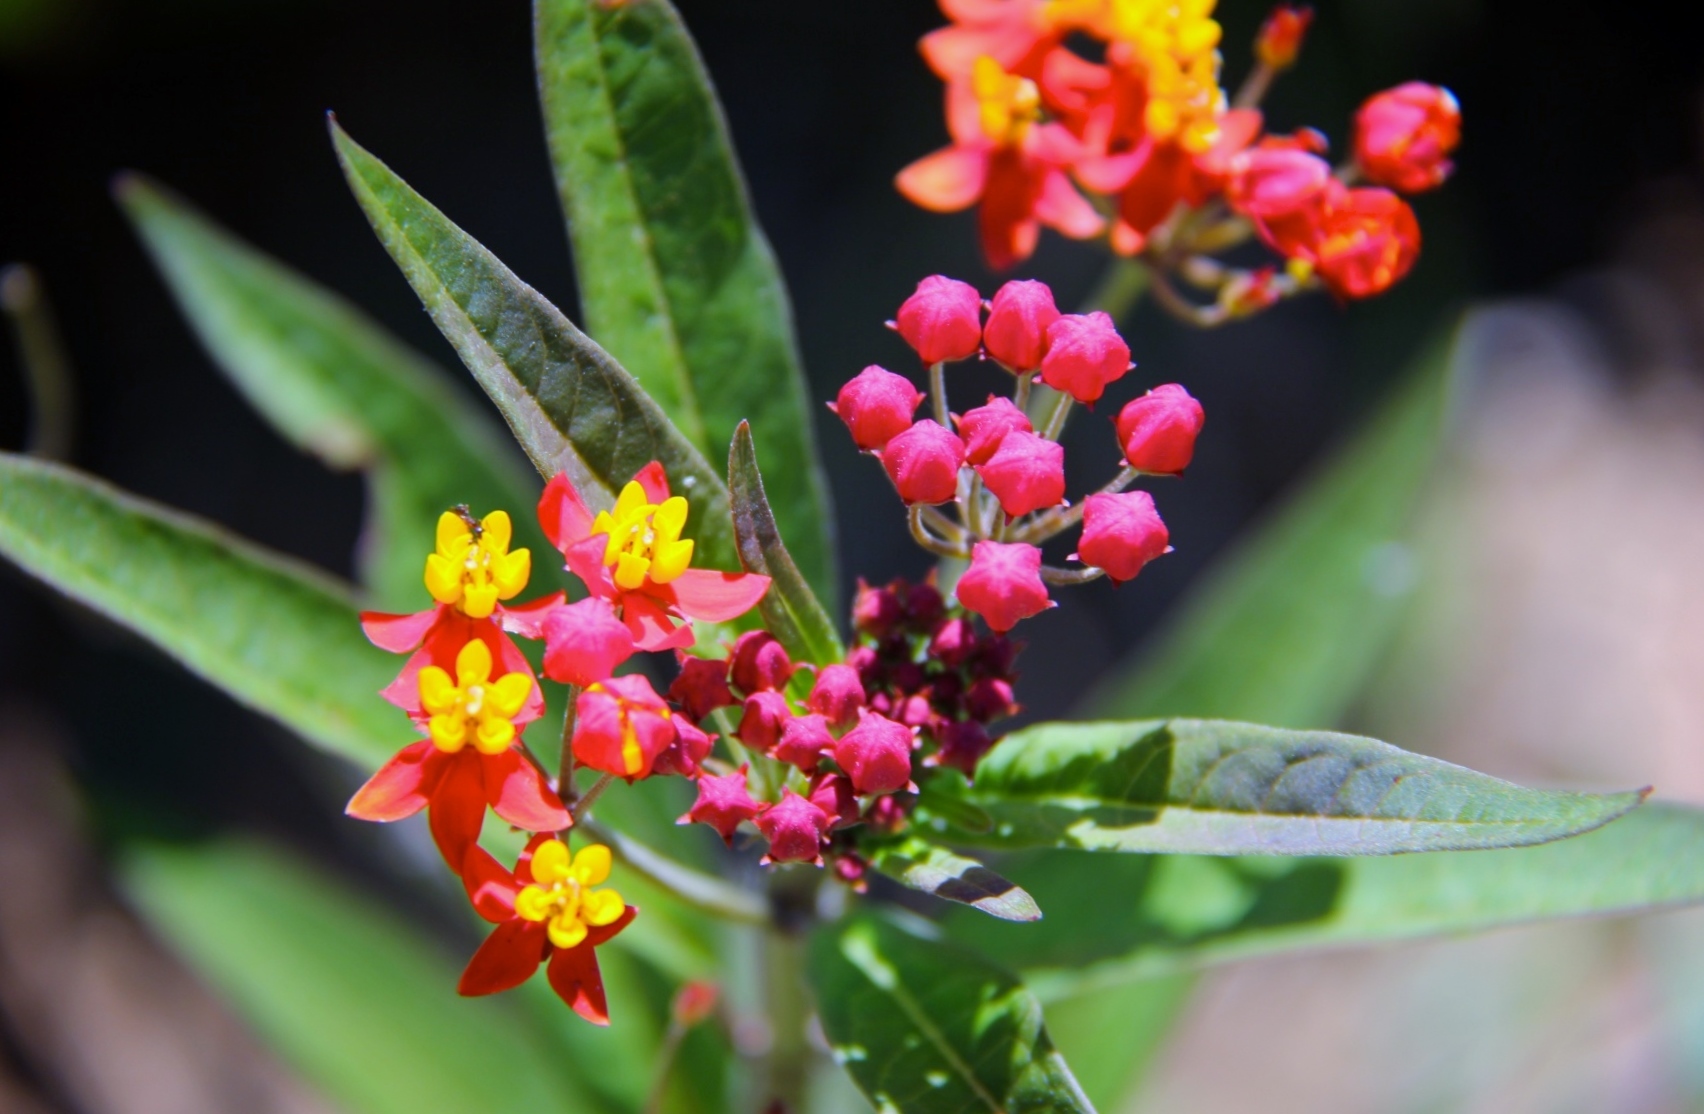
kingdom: Plantae
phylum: Tracheophyta
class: Magnoliopsida
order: Gentianales
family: Apocynaceae
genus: Asclepias
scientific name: Asclepias curassavica
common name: Bloodflower
